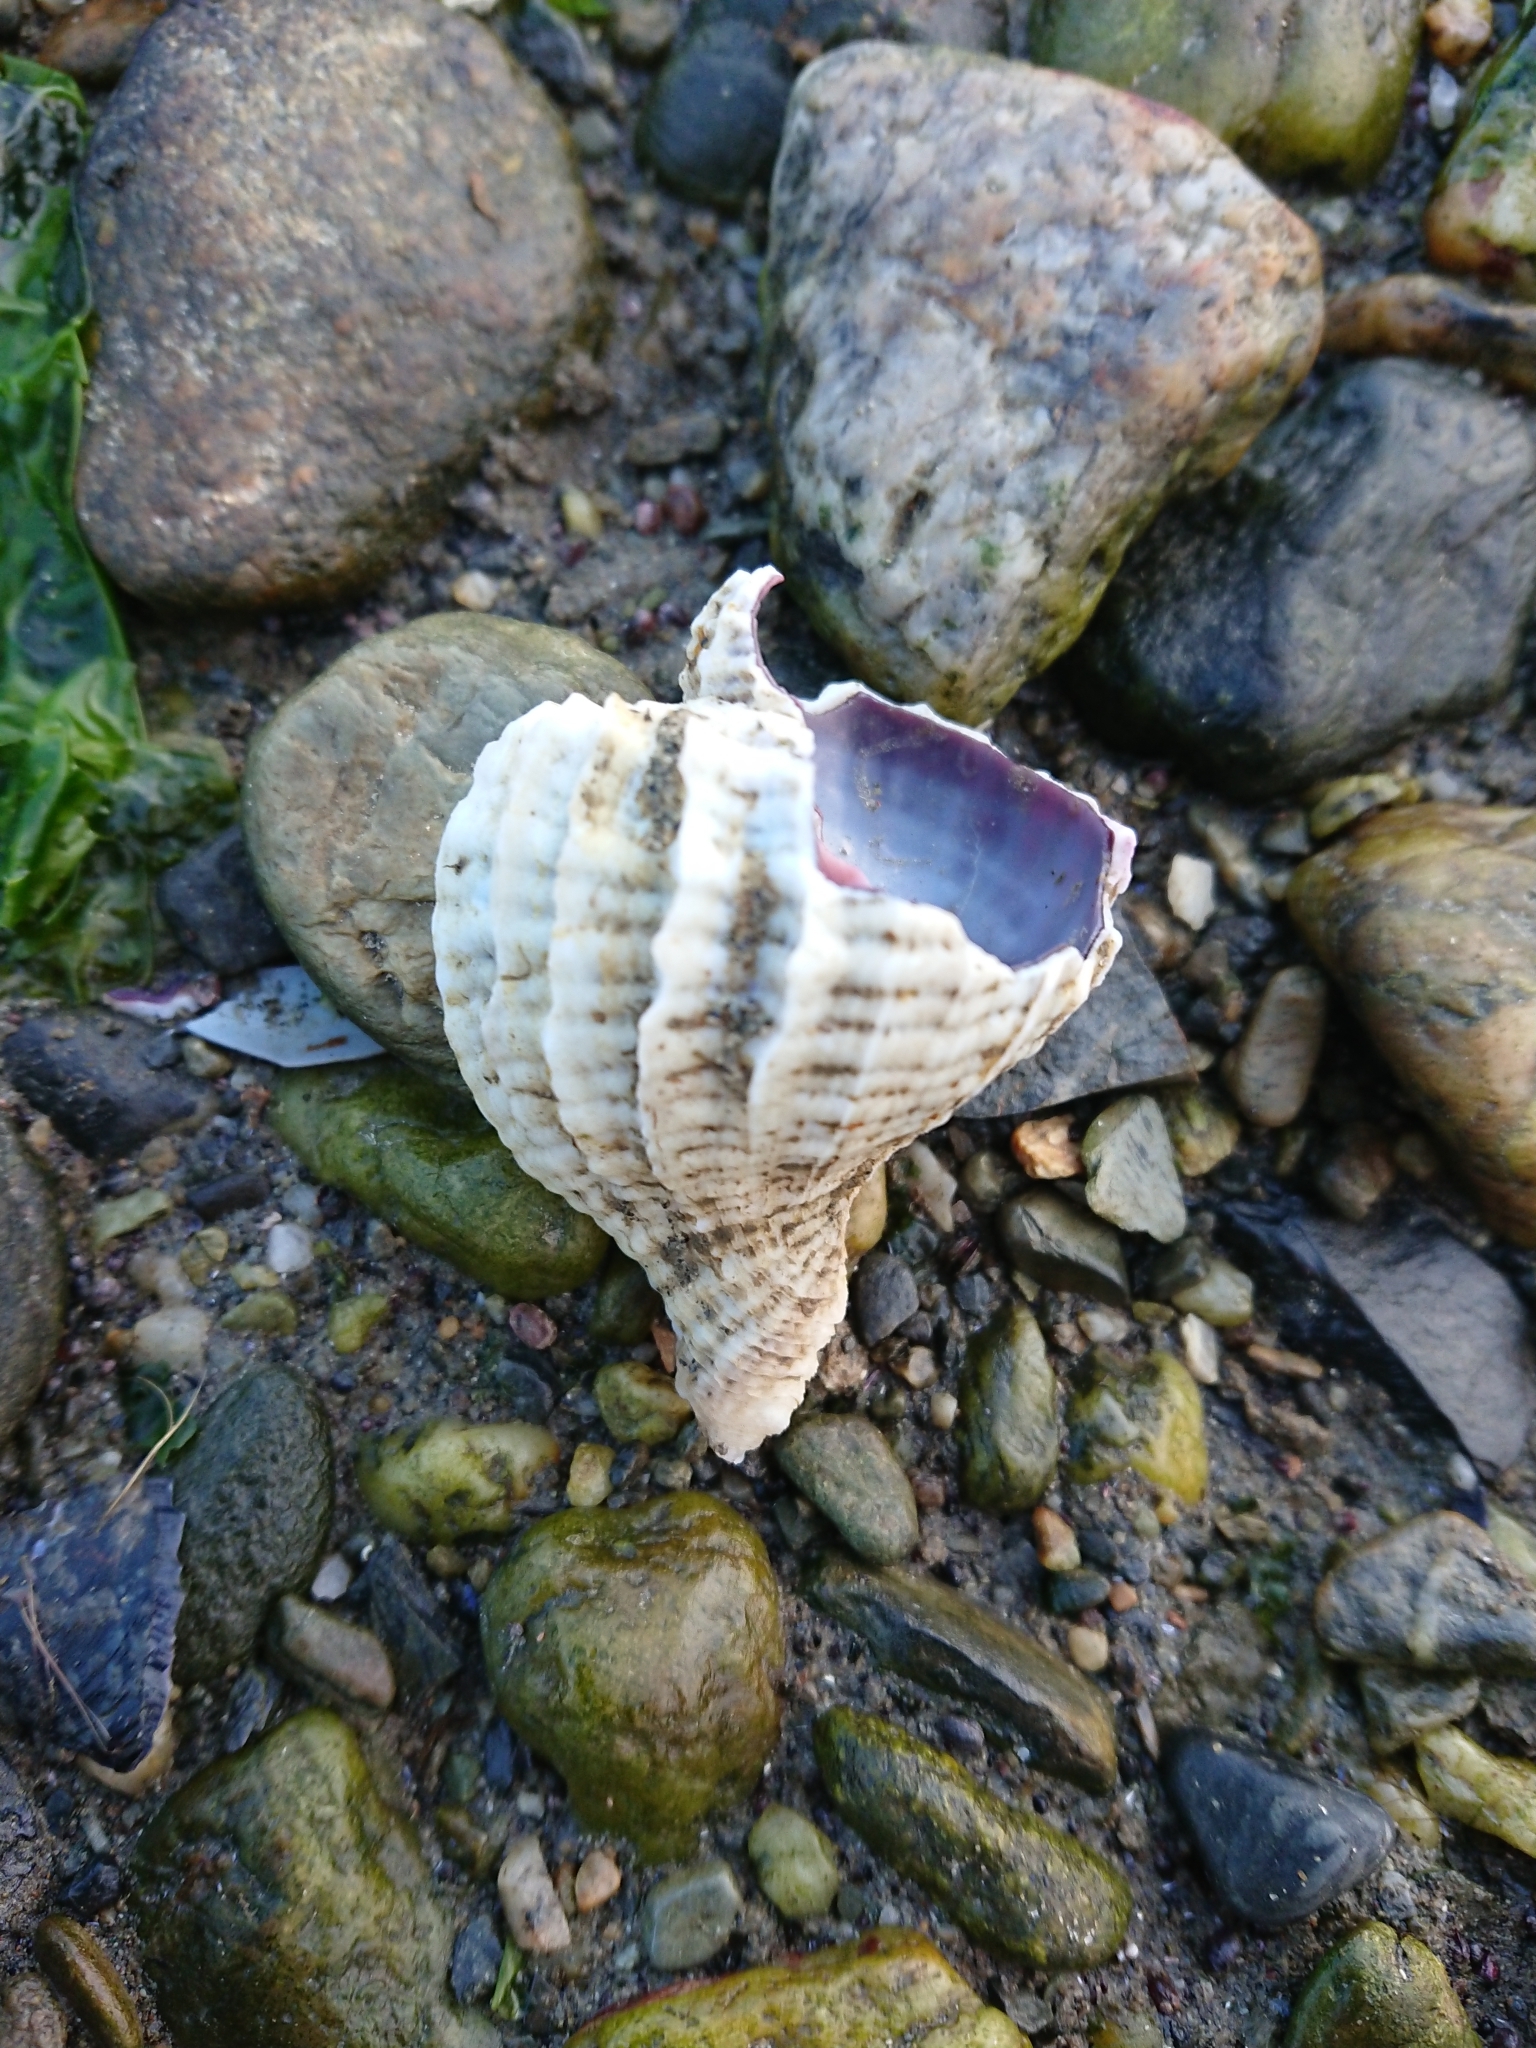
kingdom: Animalia
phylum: Mollusca
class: Gastropoda
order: Neogastropoda
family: Muricidae
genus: Trophon
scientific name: Trophon geversianus
